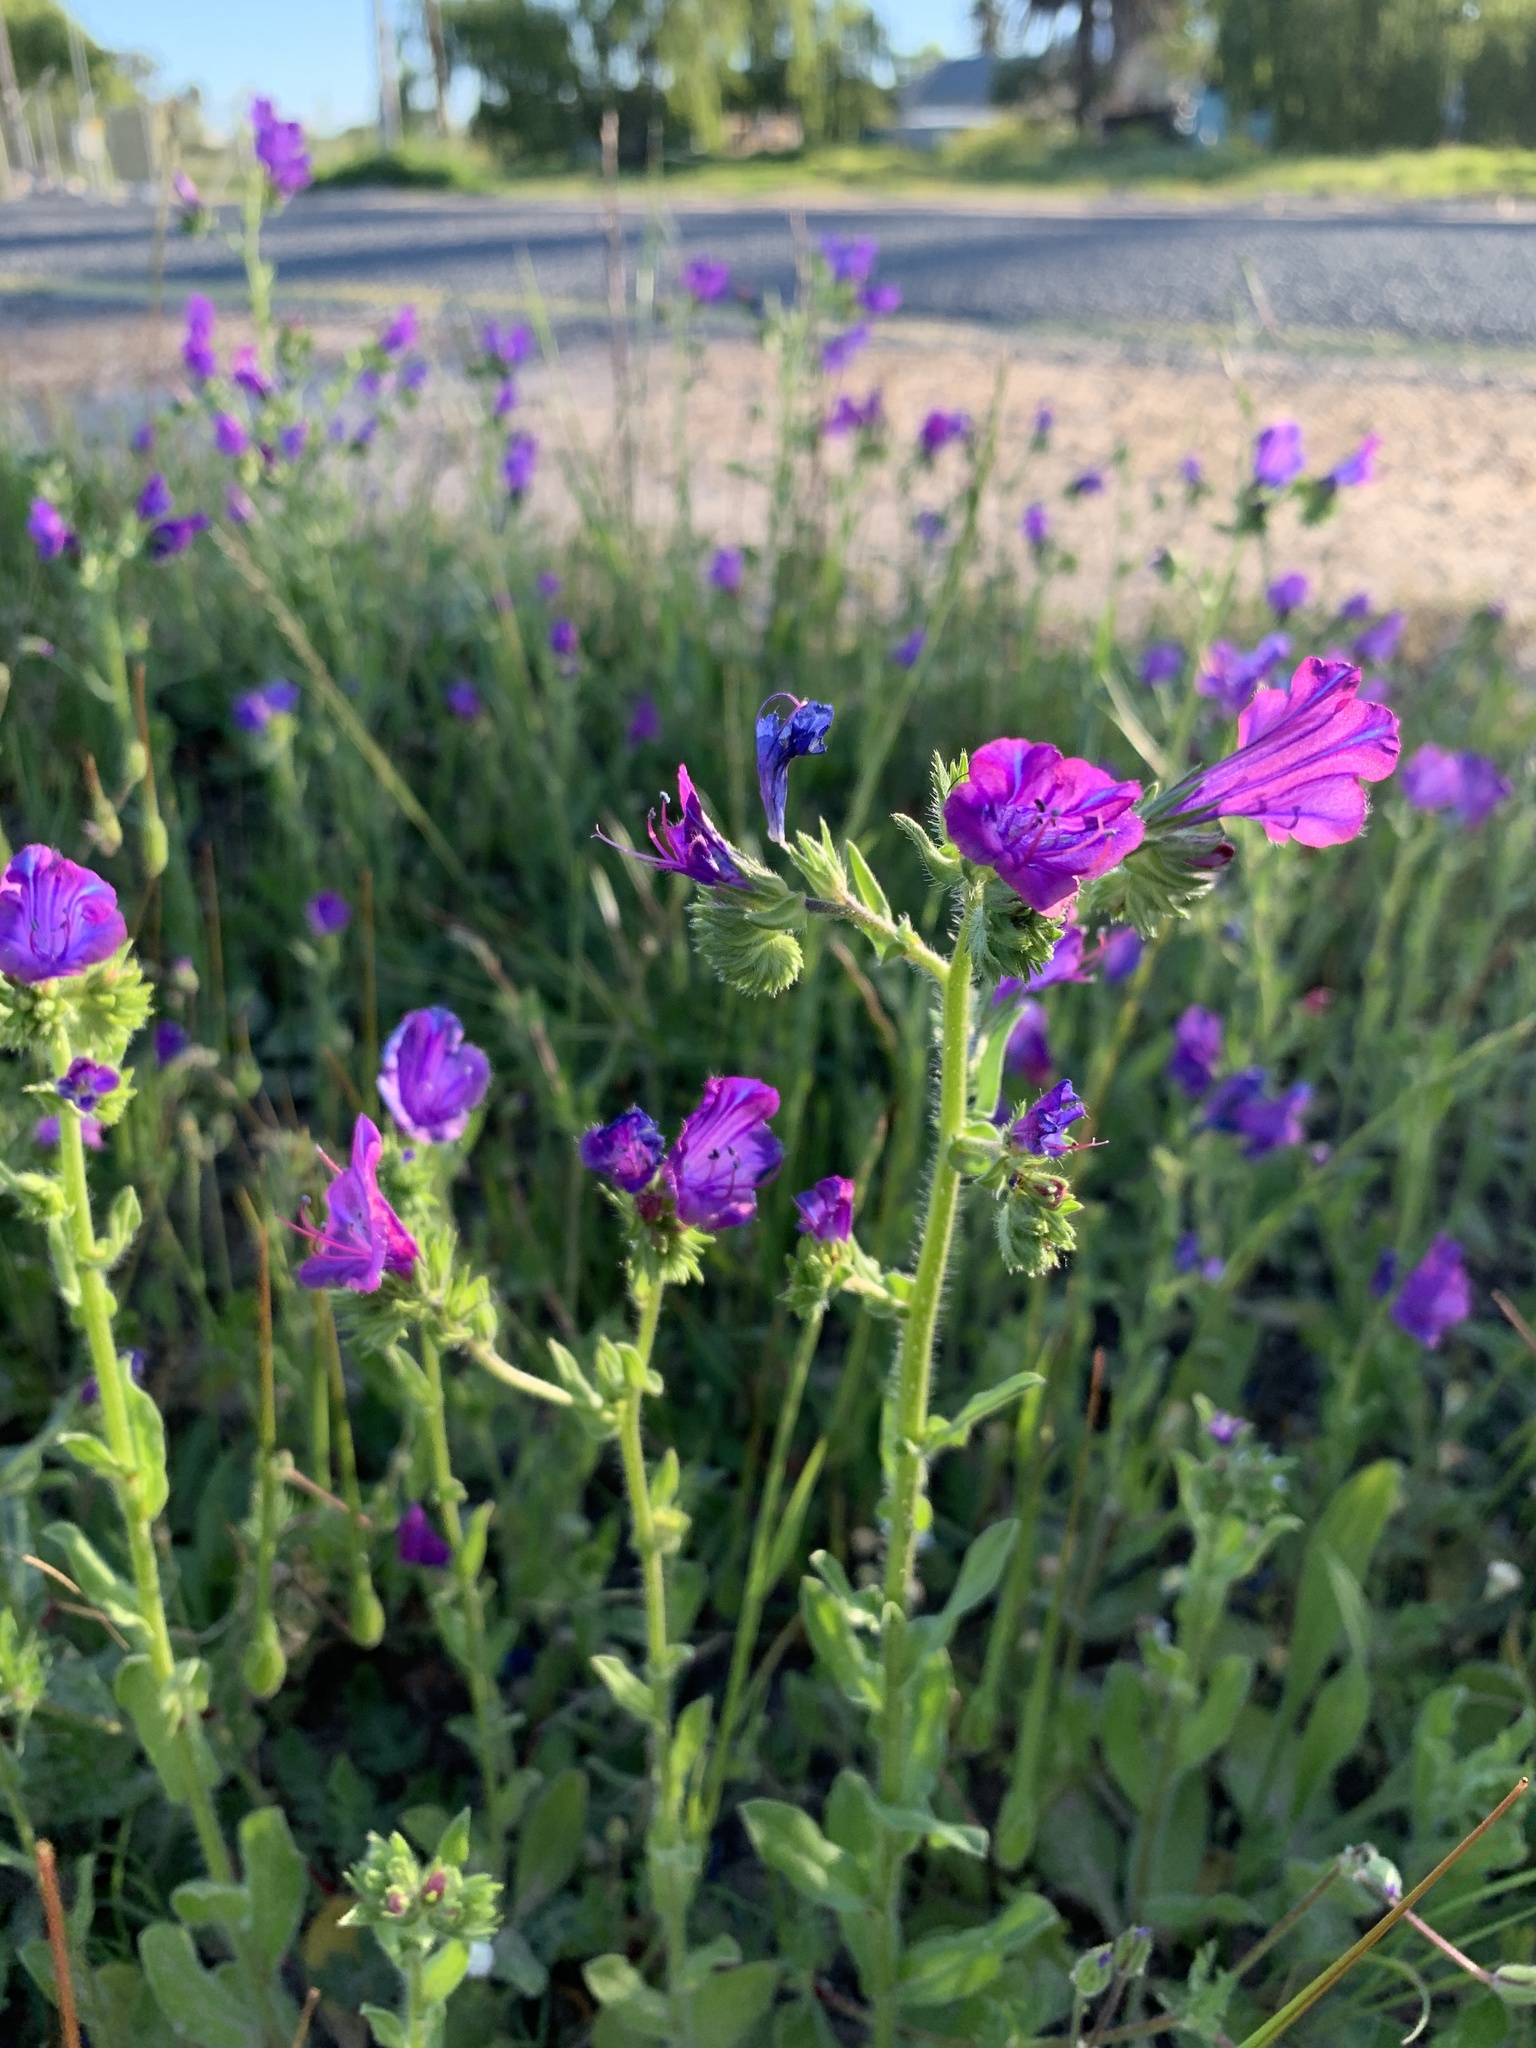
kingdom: Plantae
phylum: Tracheophyta
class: Magnoliopsida
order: Boraginales
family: Boraginaceae
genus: Echium
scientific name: Echium plantagineum
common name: Purple viper's-bugloss
